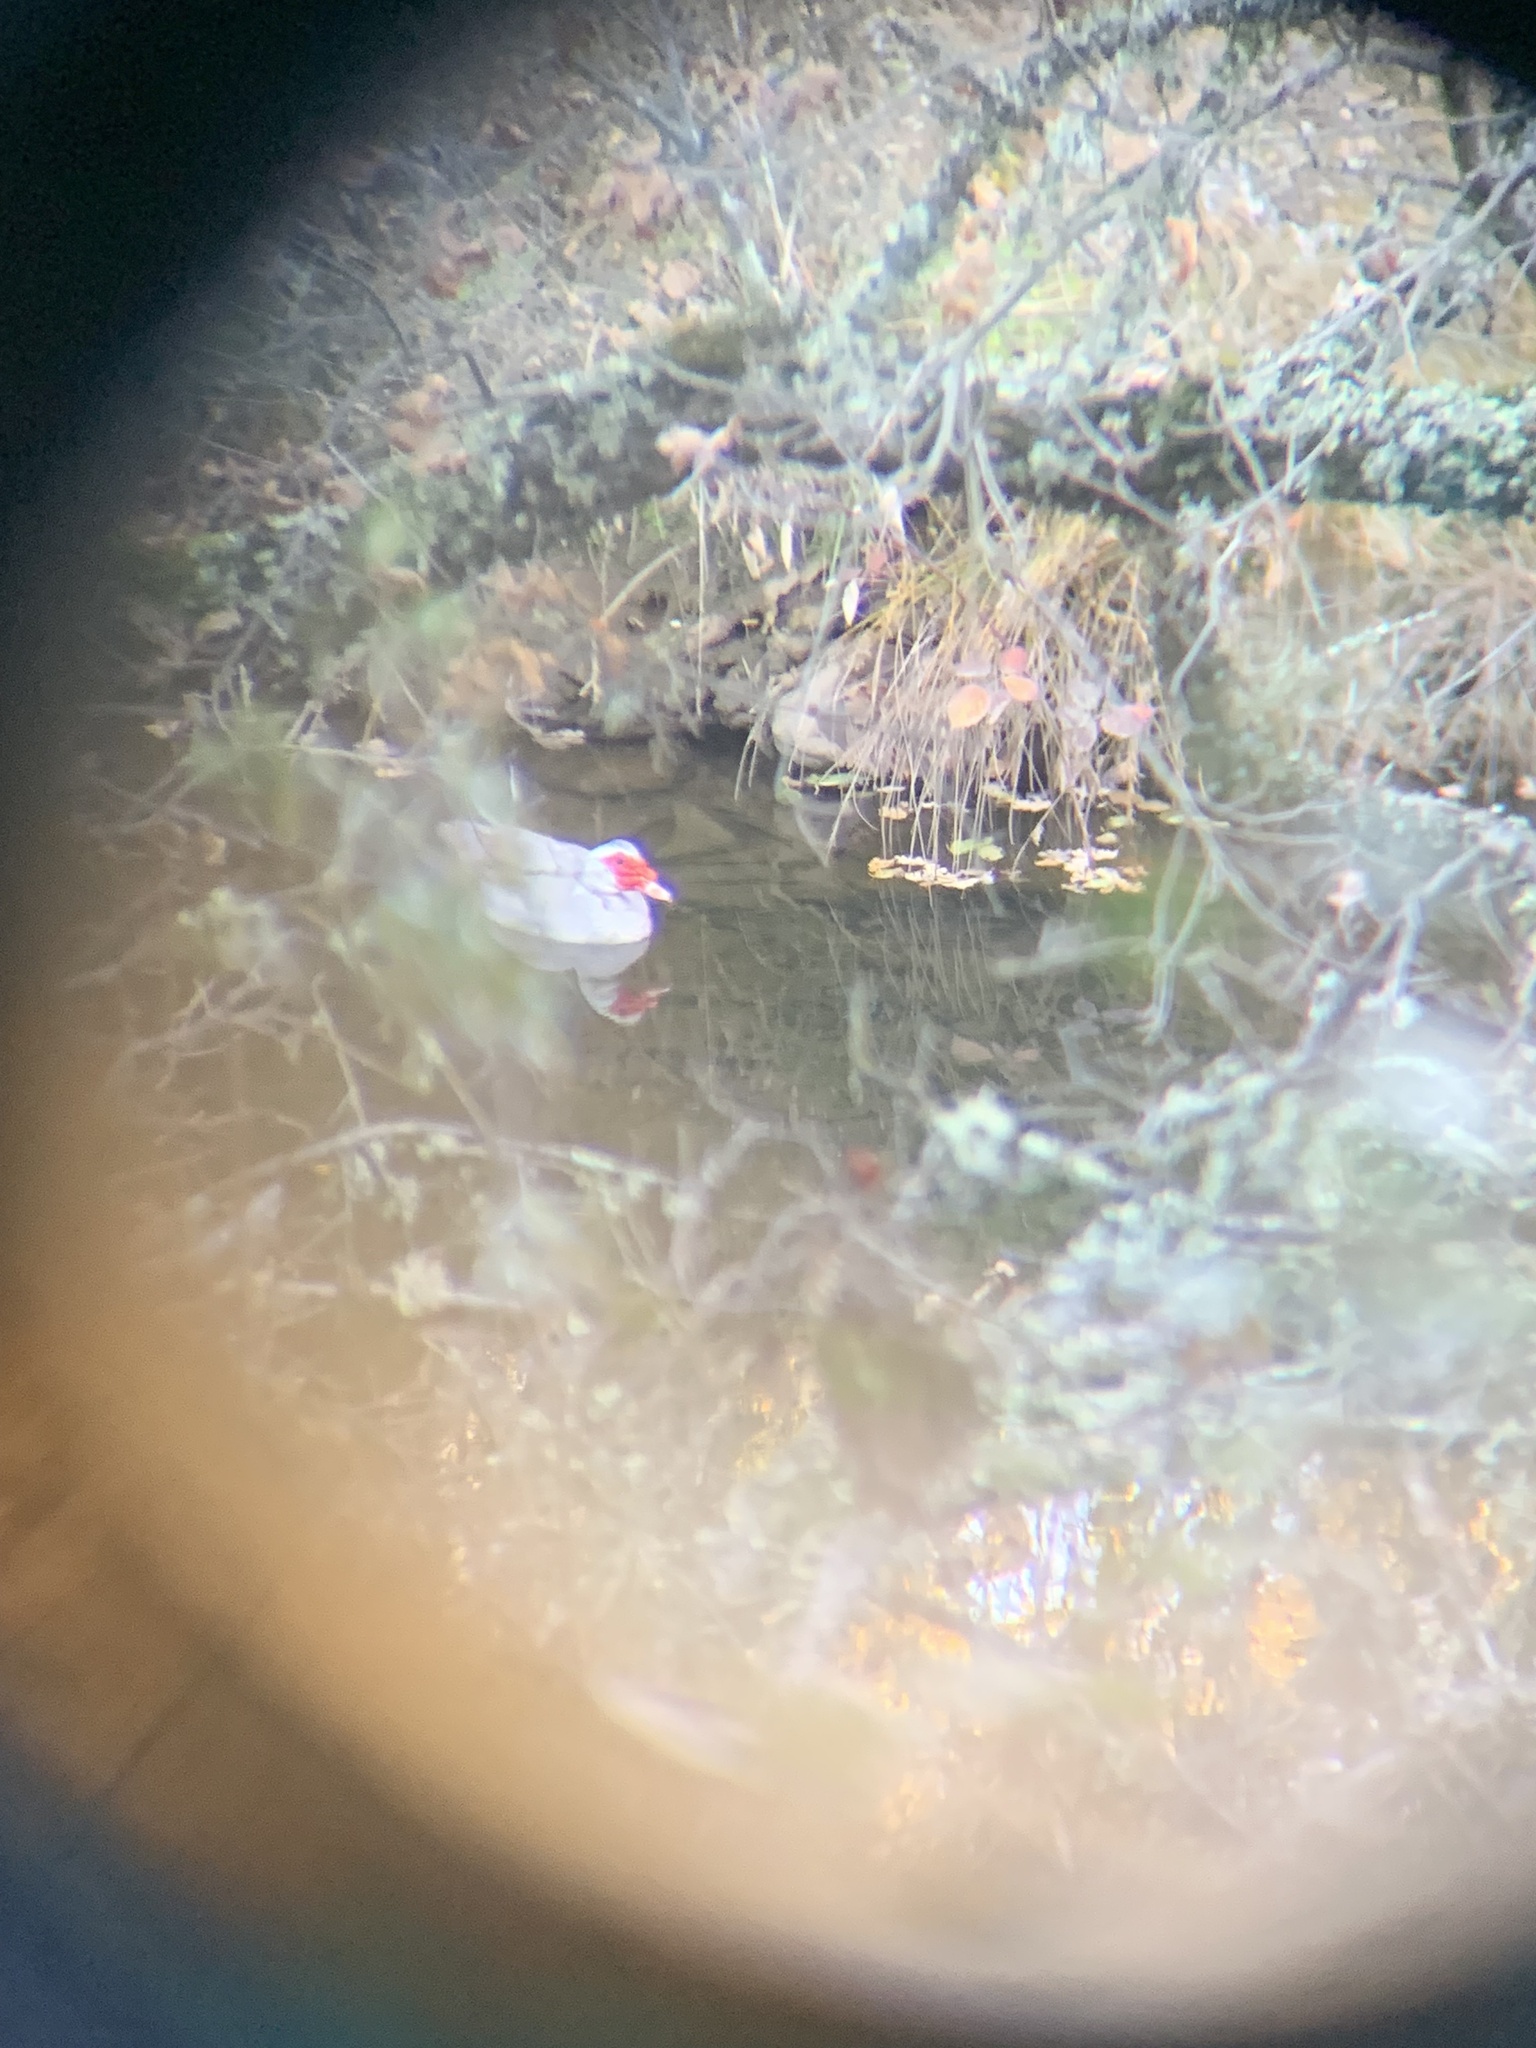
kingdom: Animalia
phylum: Chordata
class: Aves
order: Anseriformes
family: Anatidae
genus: Cairina
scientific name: Cairina moschata
